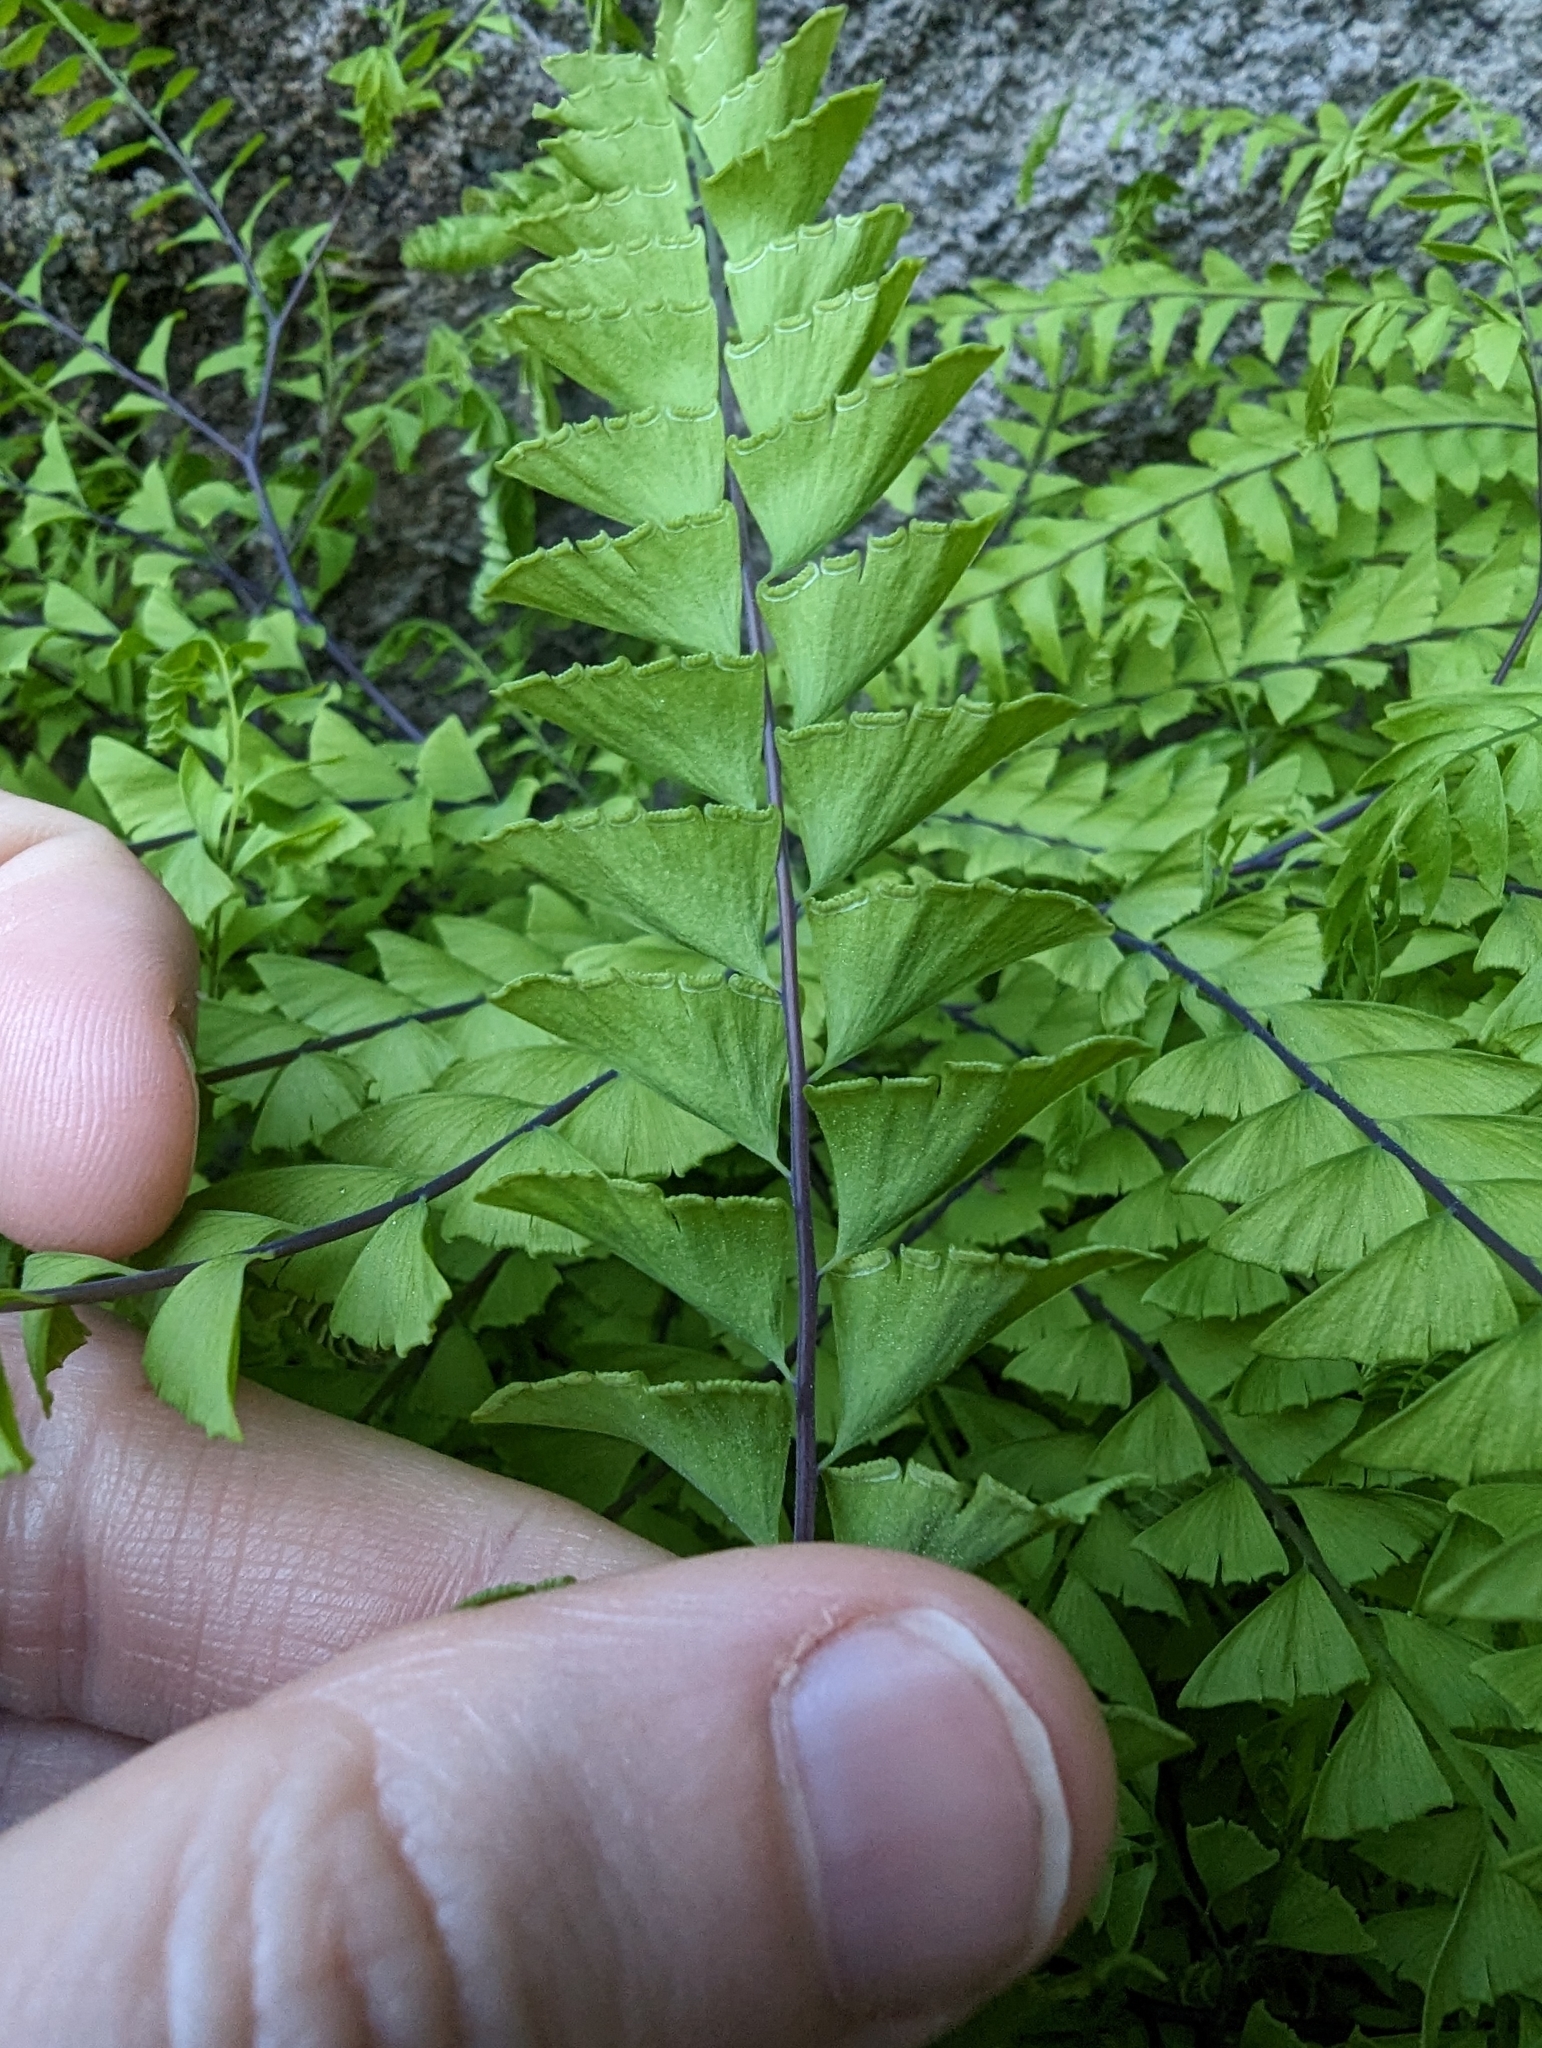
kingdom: Plantae
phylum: Tracheophyta
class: Polypodiopsida
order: Polypodiales
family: Pteridaceae
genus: Adiantum
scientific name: Adiantum aleuticum
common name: Aleutian maidenhair fern
